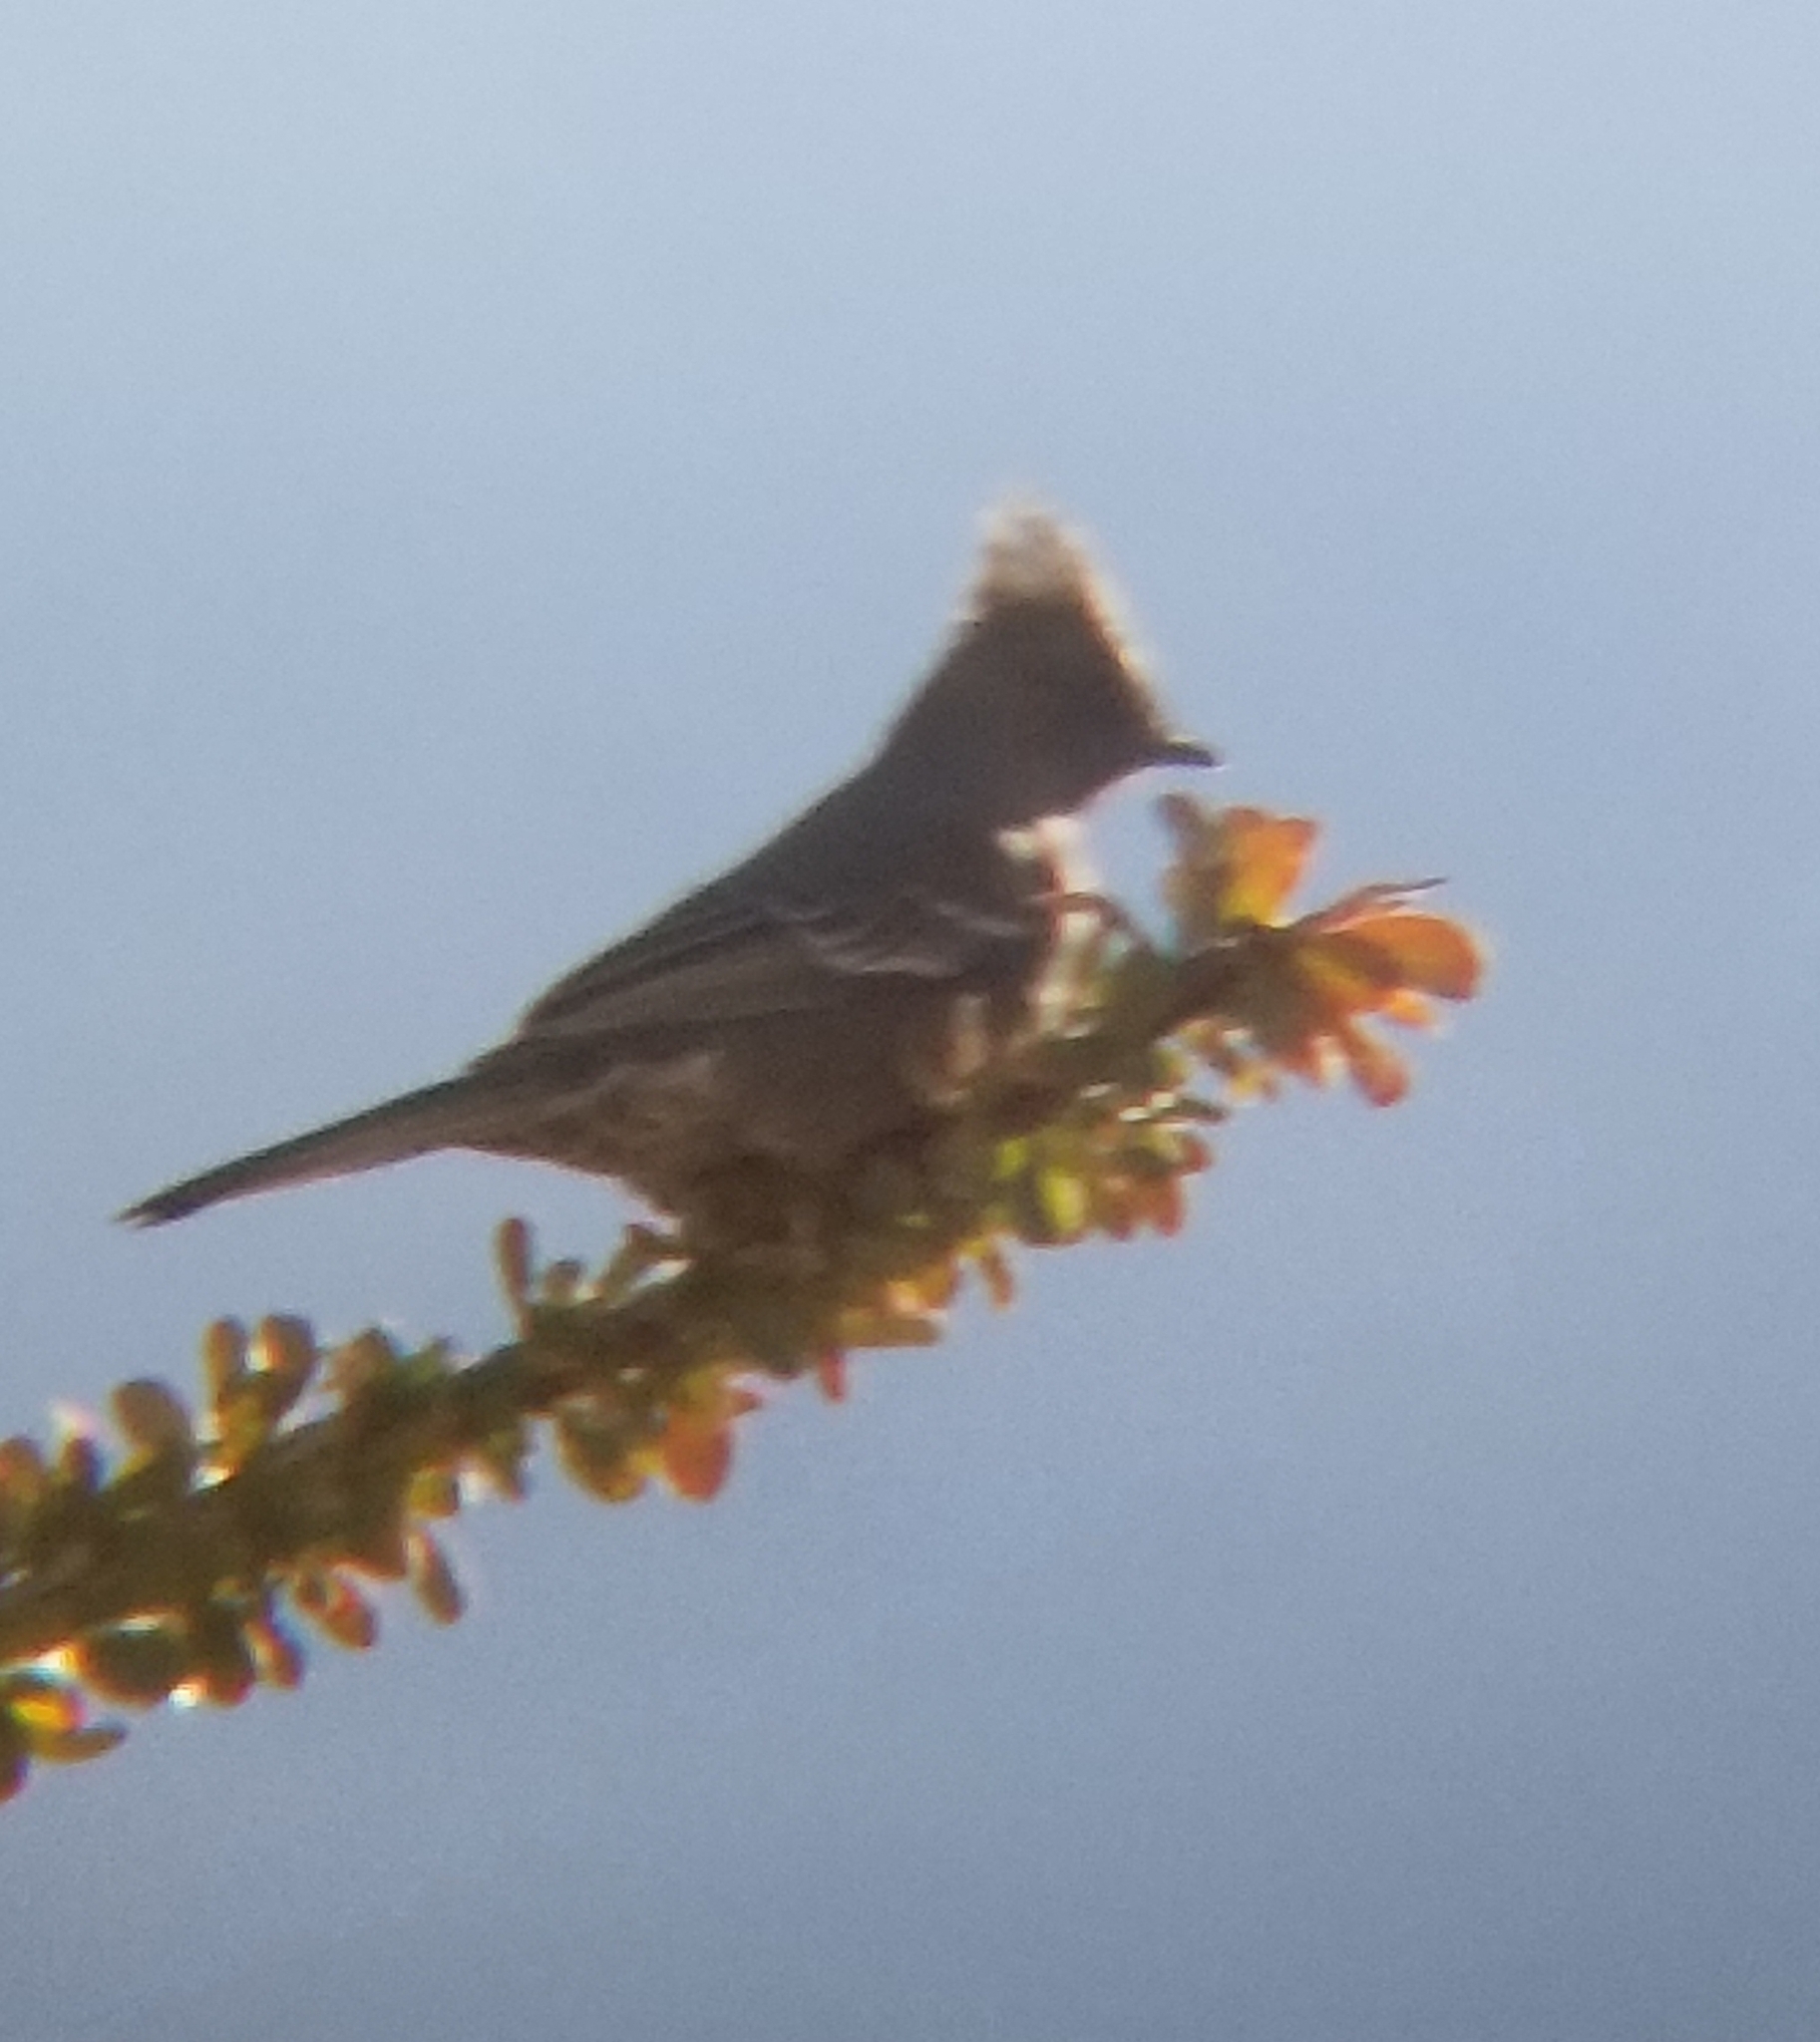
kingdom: Animalia
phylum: Chordata
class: Aves
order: Passeriformes
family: Ptilogonatidae
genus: Phainopepla
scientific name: Phainopepla nitens
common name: Phainopepla
